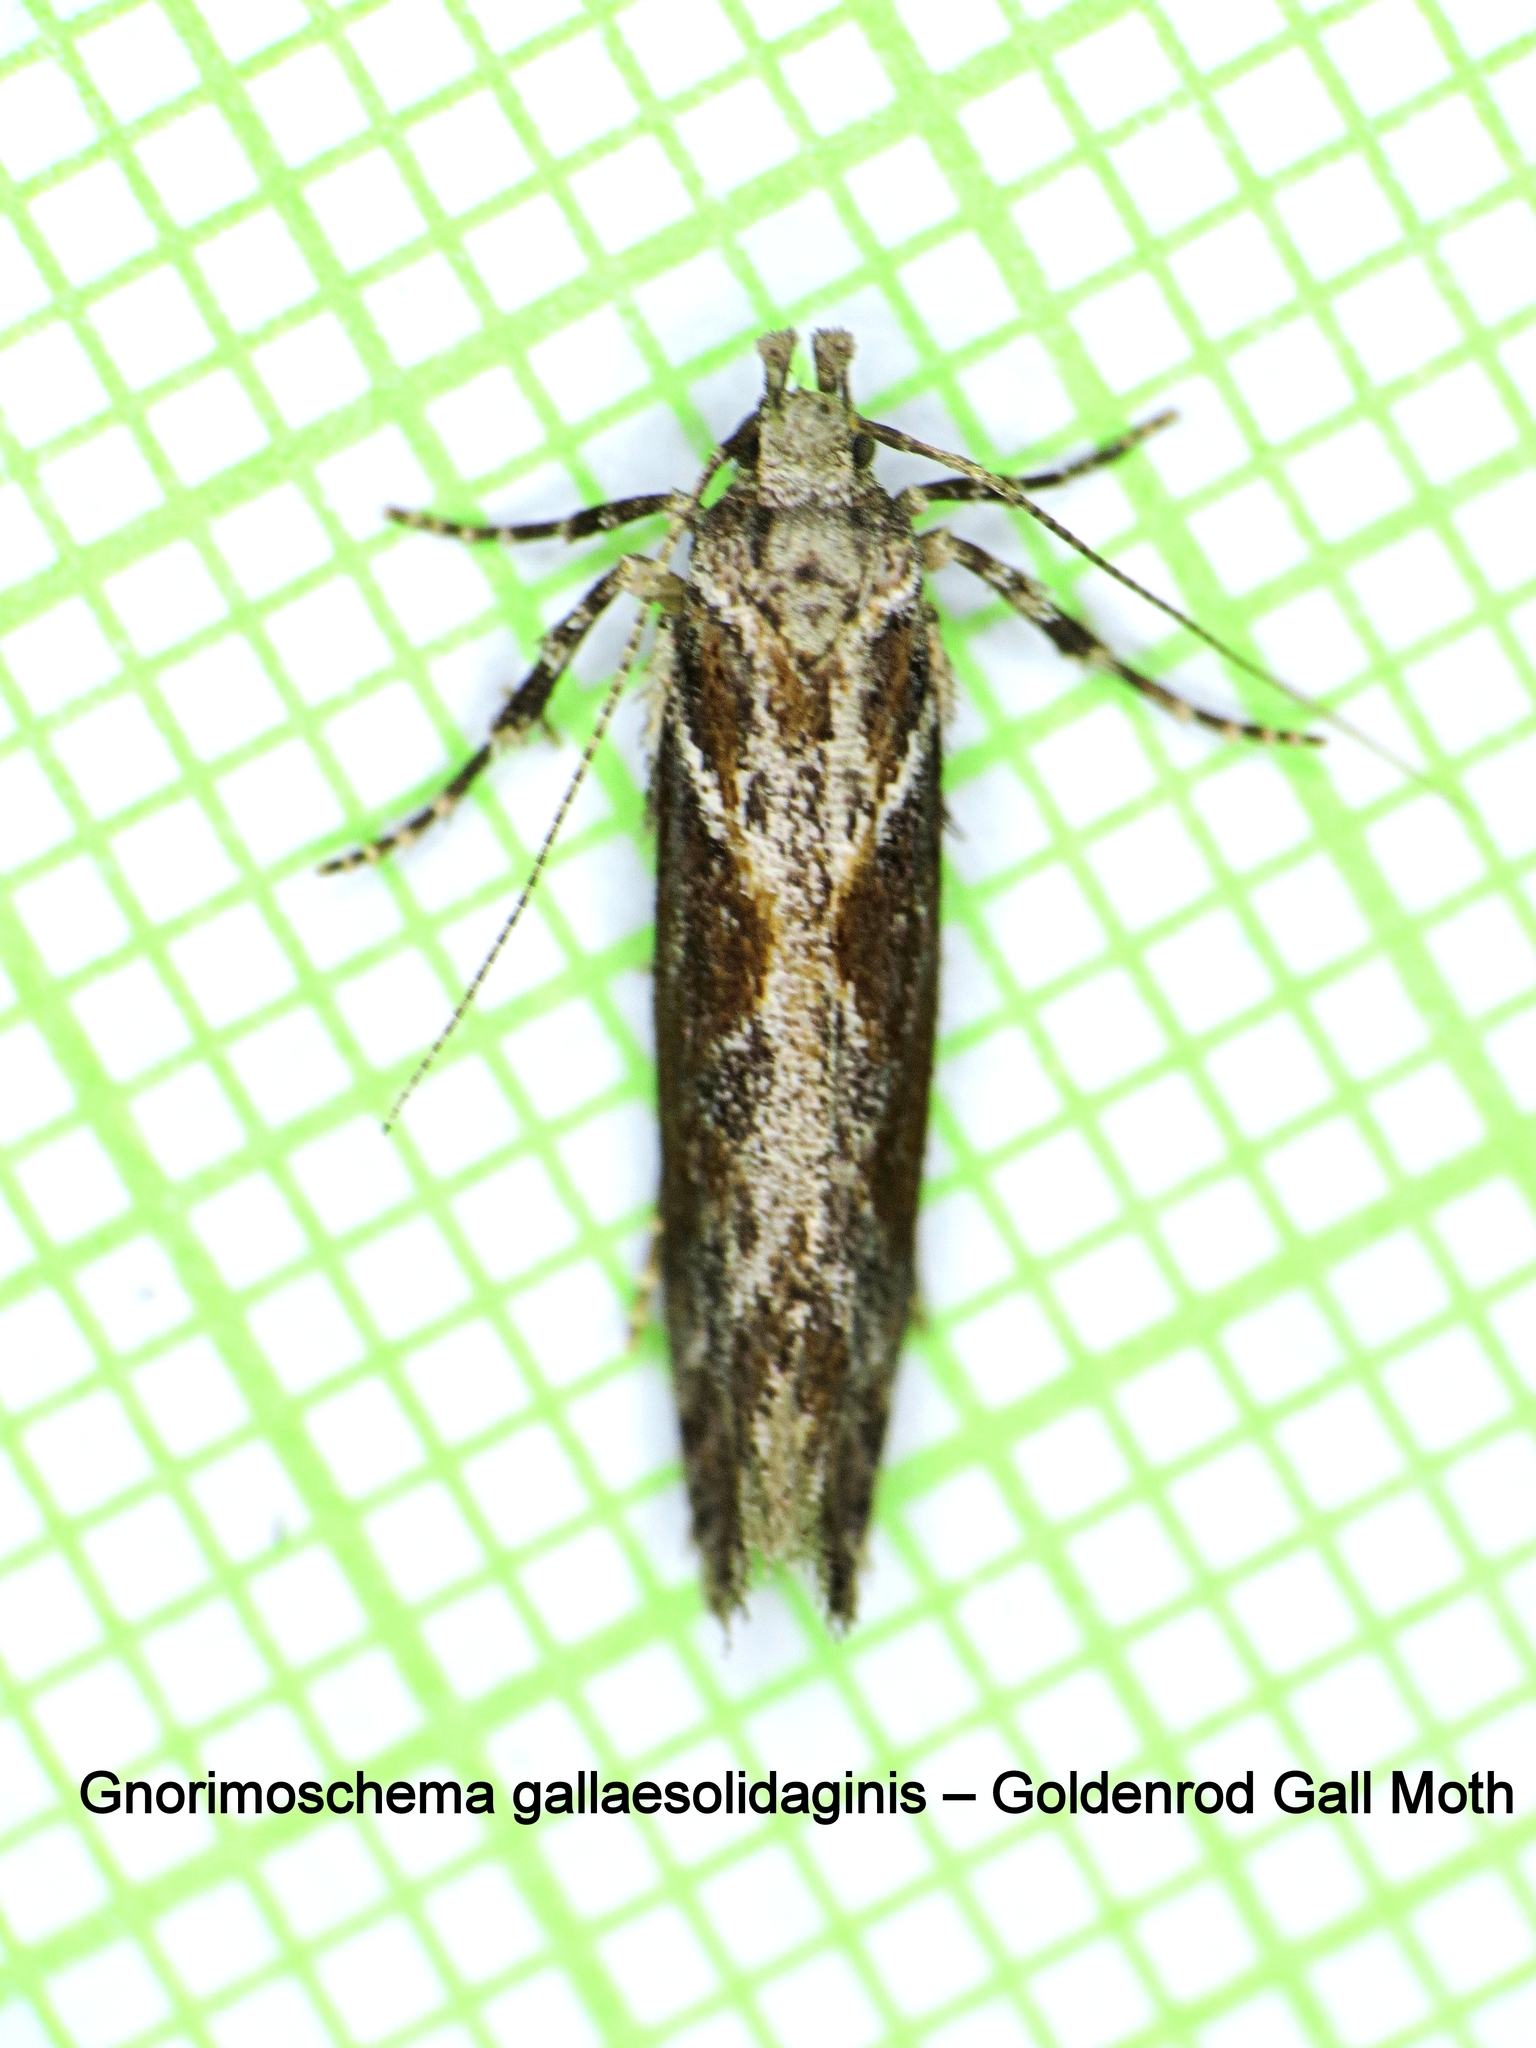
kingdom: Animalia
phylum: Arthropoda
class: Insecta
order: Lepidoptera
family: Gelechiidae
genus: Gnorimoschema
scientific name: Gnorimoschema gallaesolidaginis
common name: Goldenrod elliptical-gall moth
